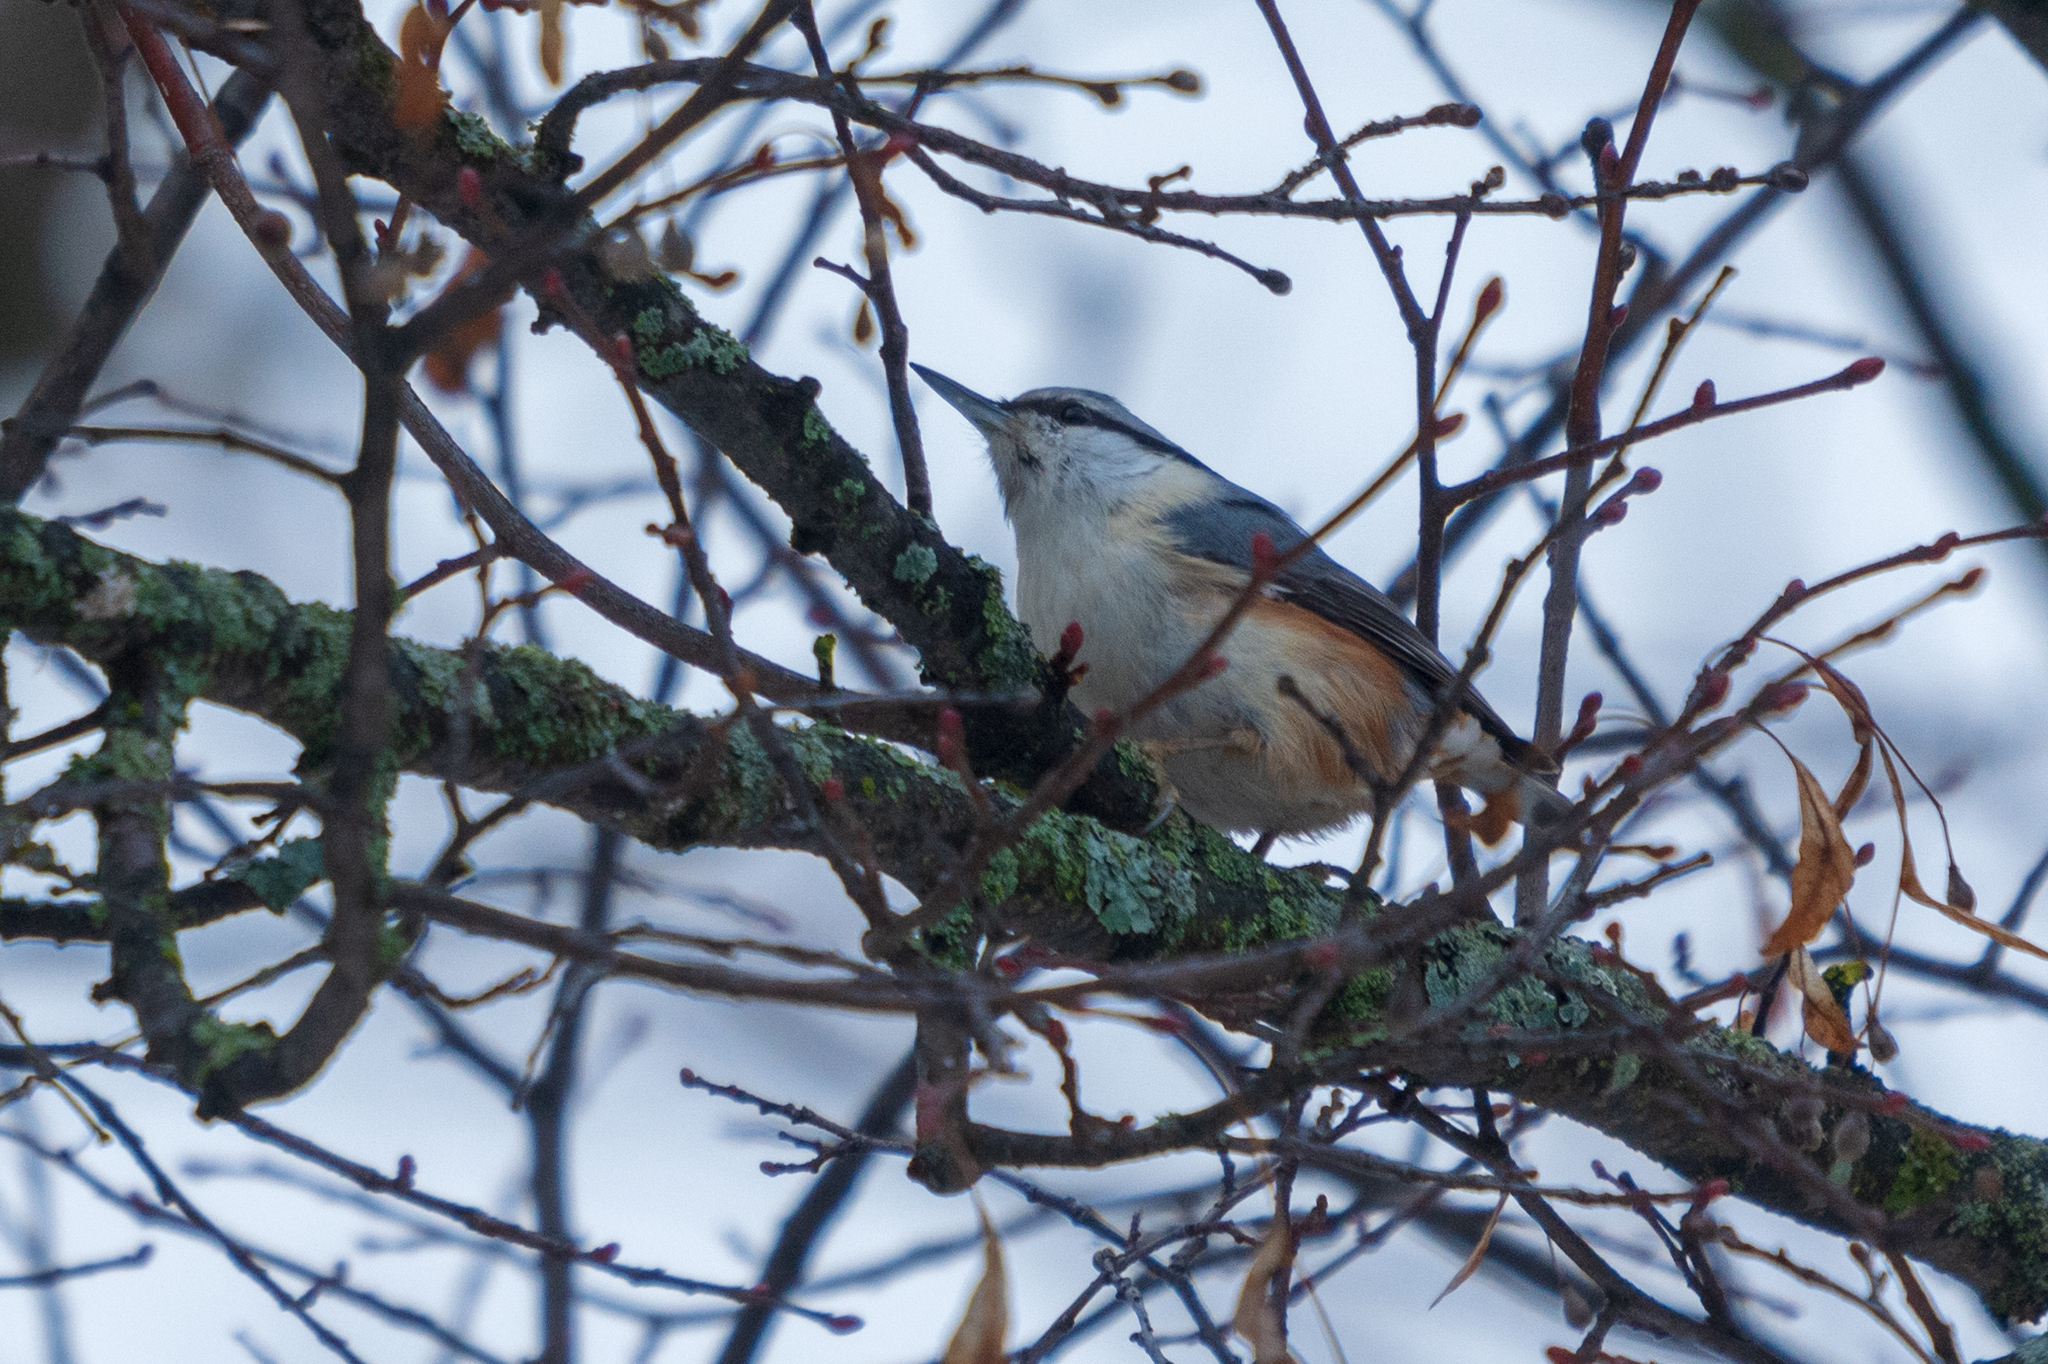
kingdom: Animalia
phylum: Chordata
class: Aves
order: Passeriformes
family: Sittidae
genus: Sitta
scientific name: Sitta europaea
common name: Eurasian nuthatch
